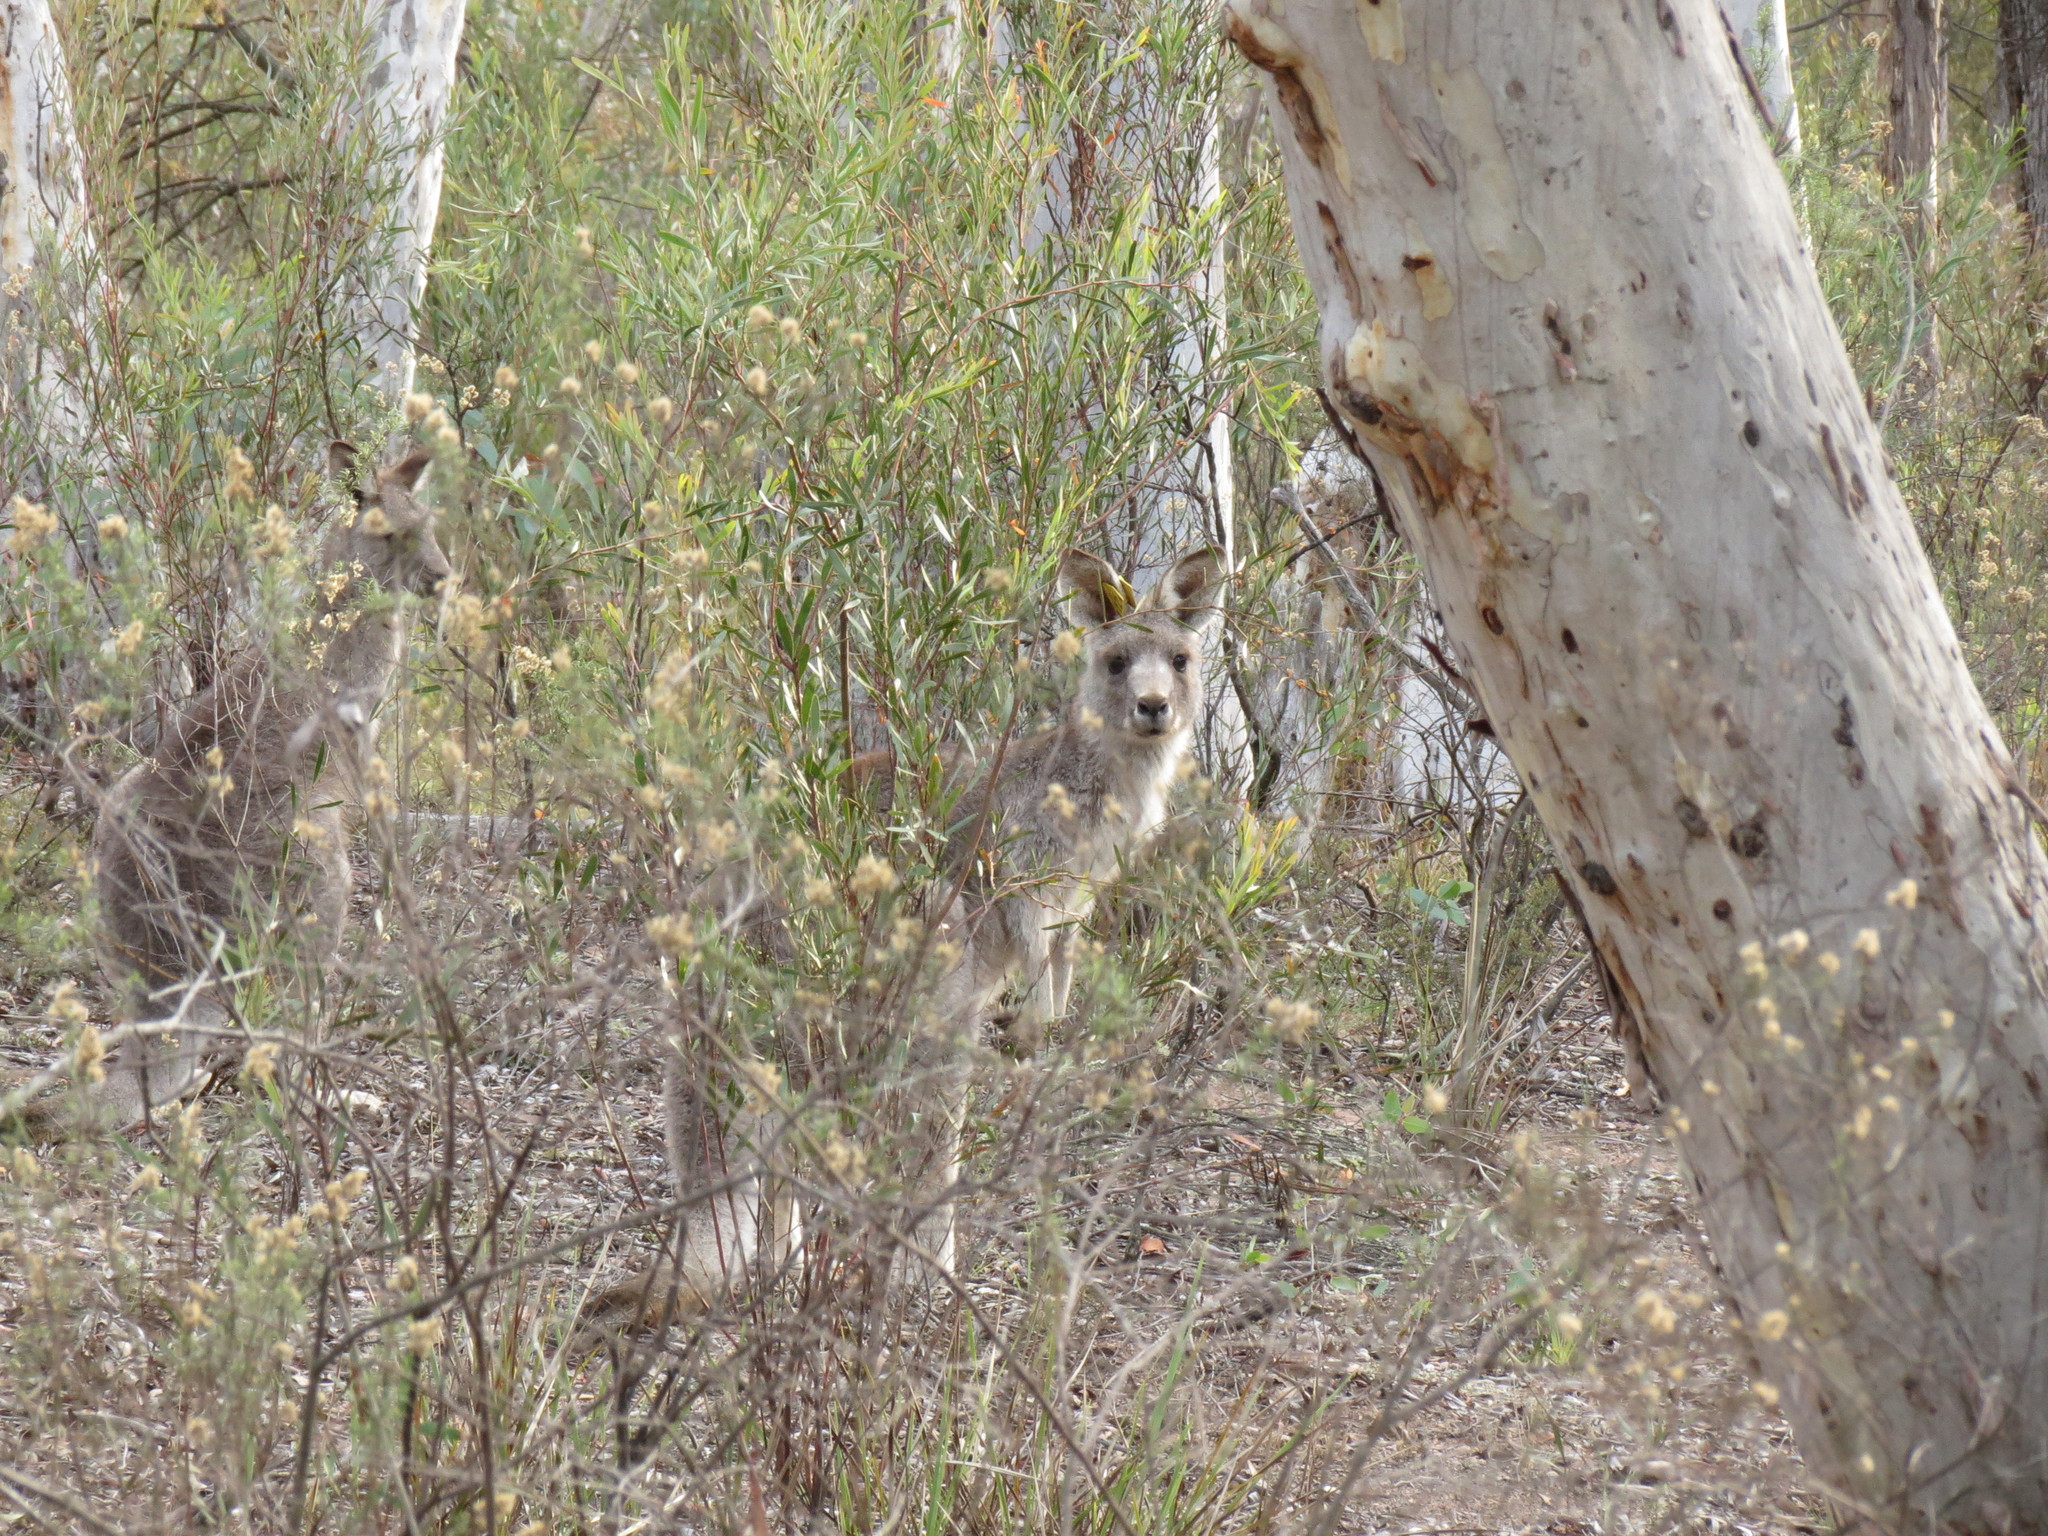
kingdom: Animalia
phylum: Chordata
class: Mammalia
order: Diprotodontia
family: Macropodidae
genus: Macropus
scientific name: Macropus giganteus
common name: Eastern grey kangaroo
